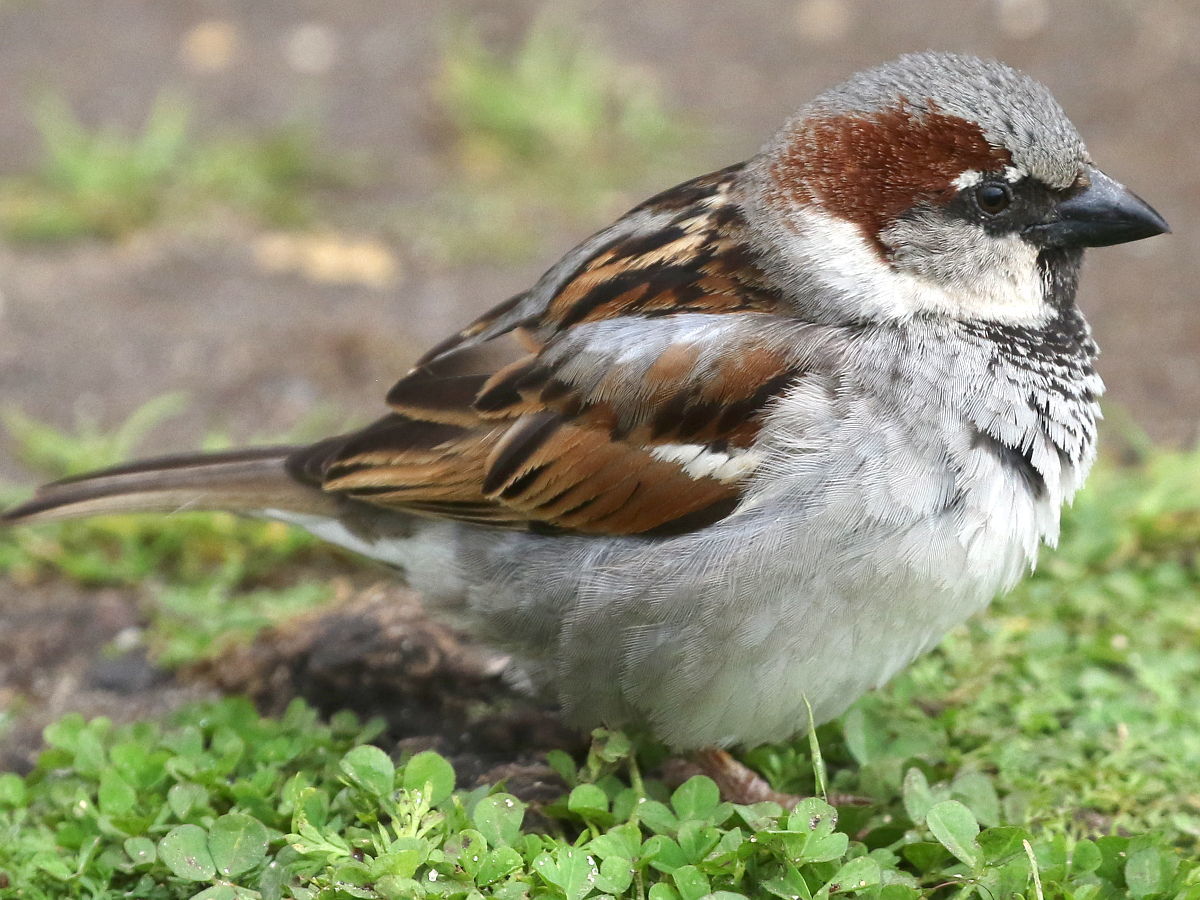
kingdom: Animalia
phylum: Chordata
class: Aves
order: Passeriformes
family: Passeridae
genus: Passer
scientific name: Passer domesticus
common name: House sparrow
